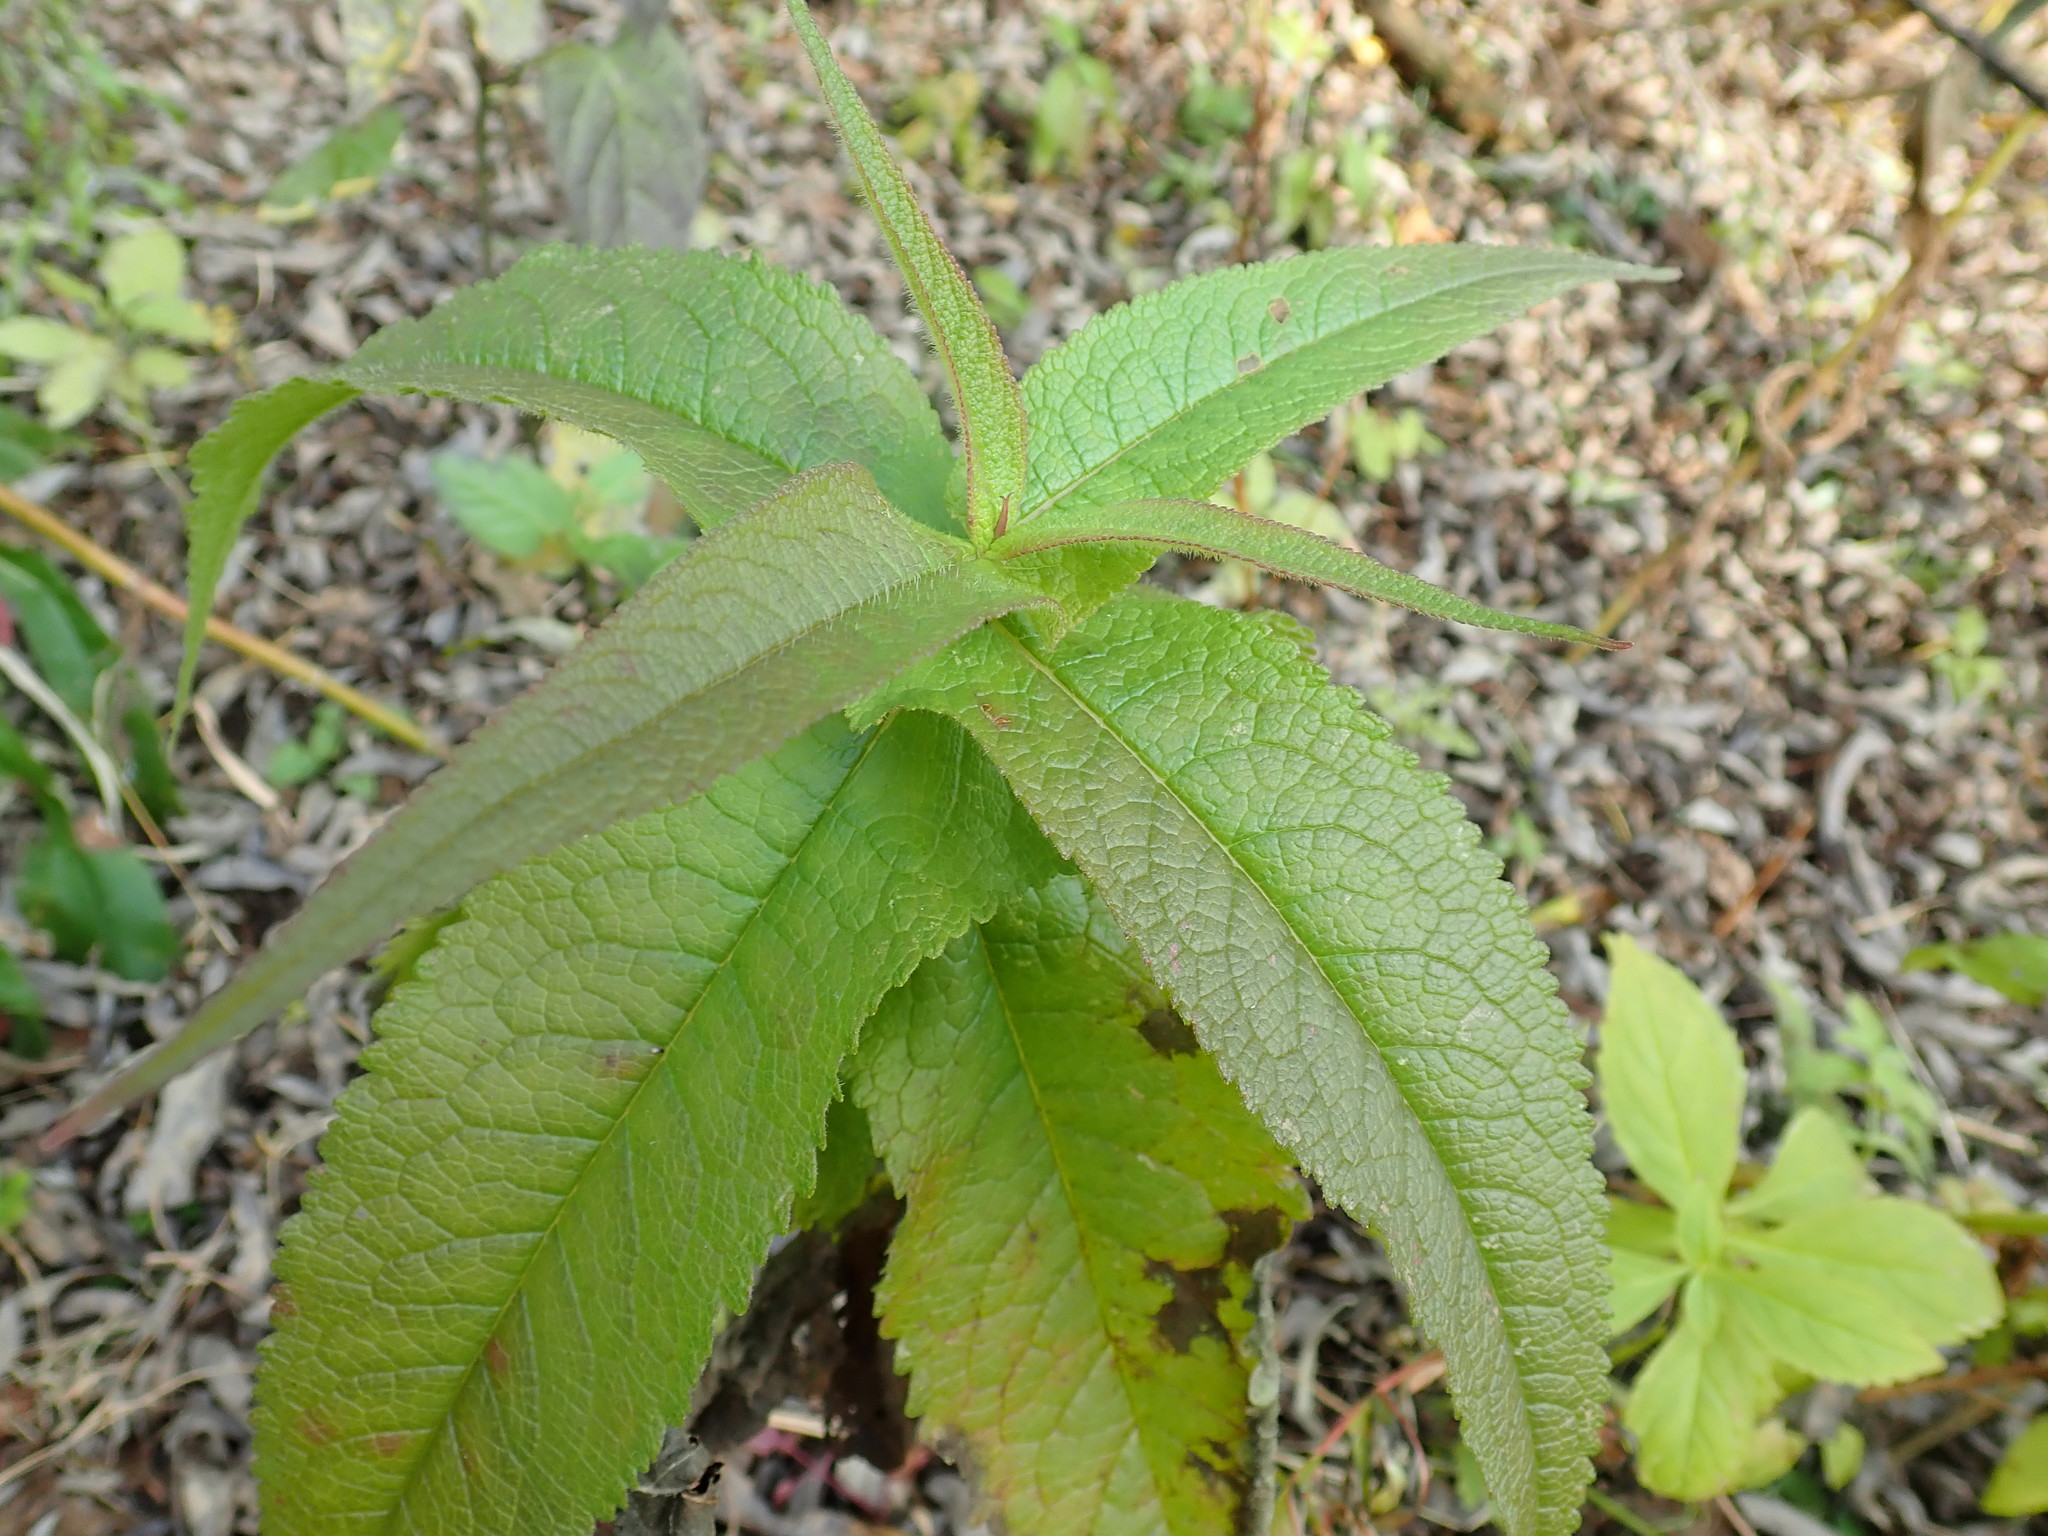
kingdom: Plantae
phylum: Tracheophyta
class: Magnoliopsida
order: Asterales
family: Asteraceae
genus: Eupatorium
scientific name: Eupatorium perfoliatum
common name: Boneset
